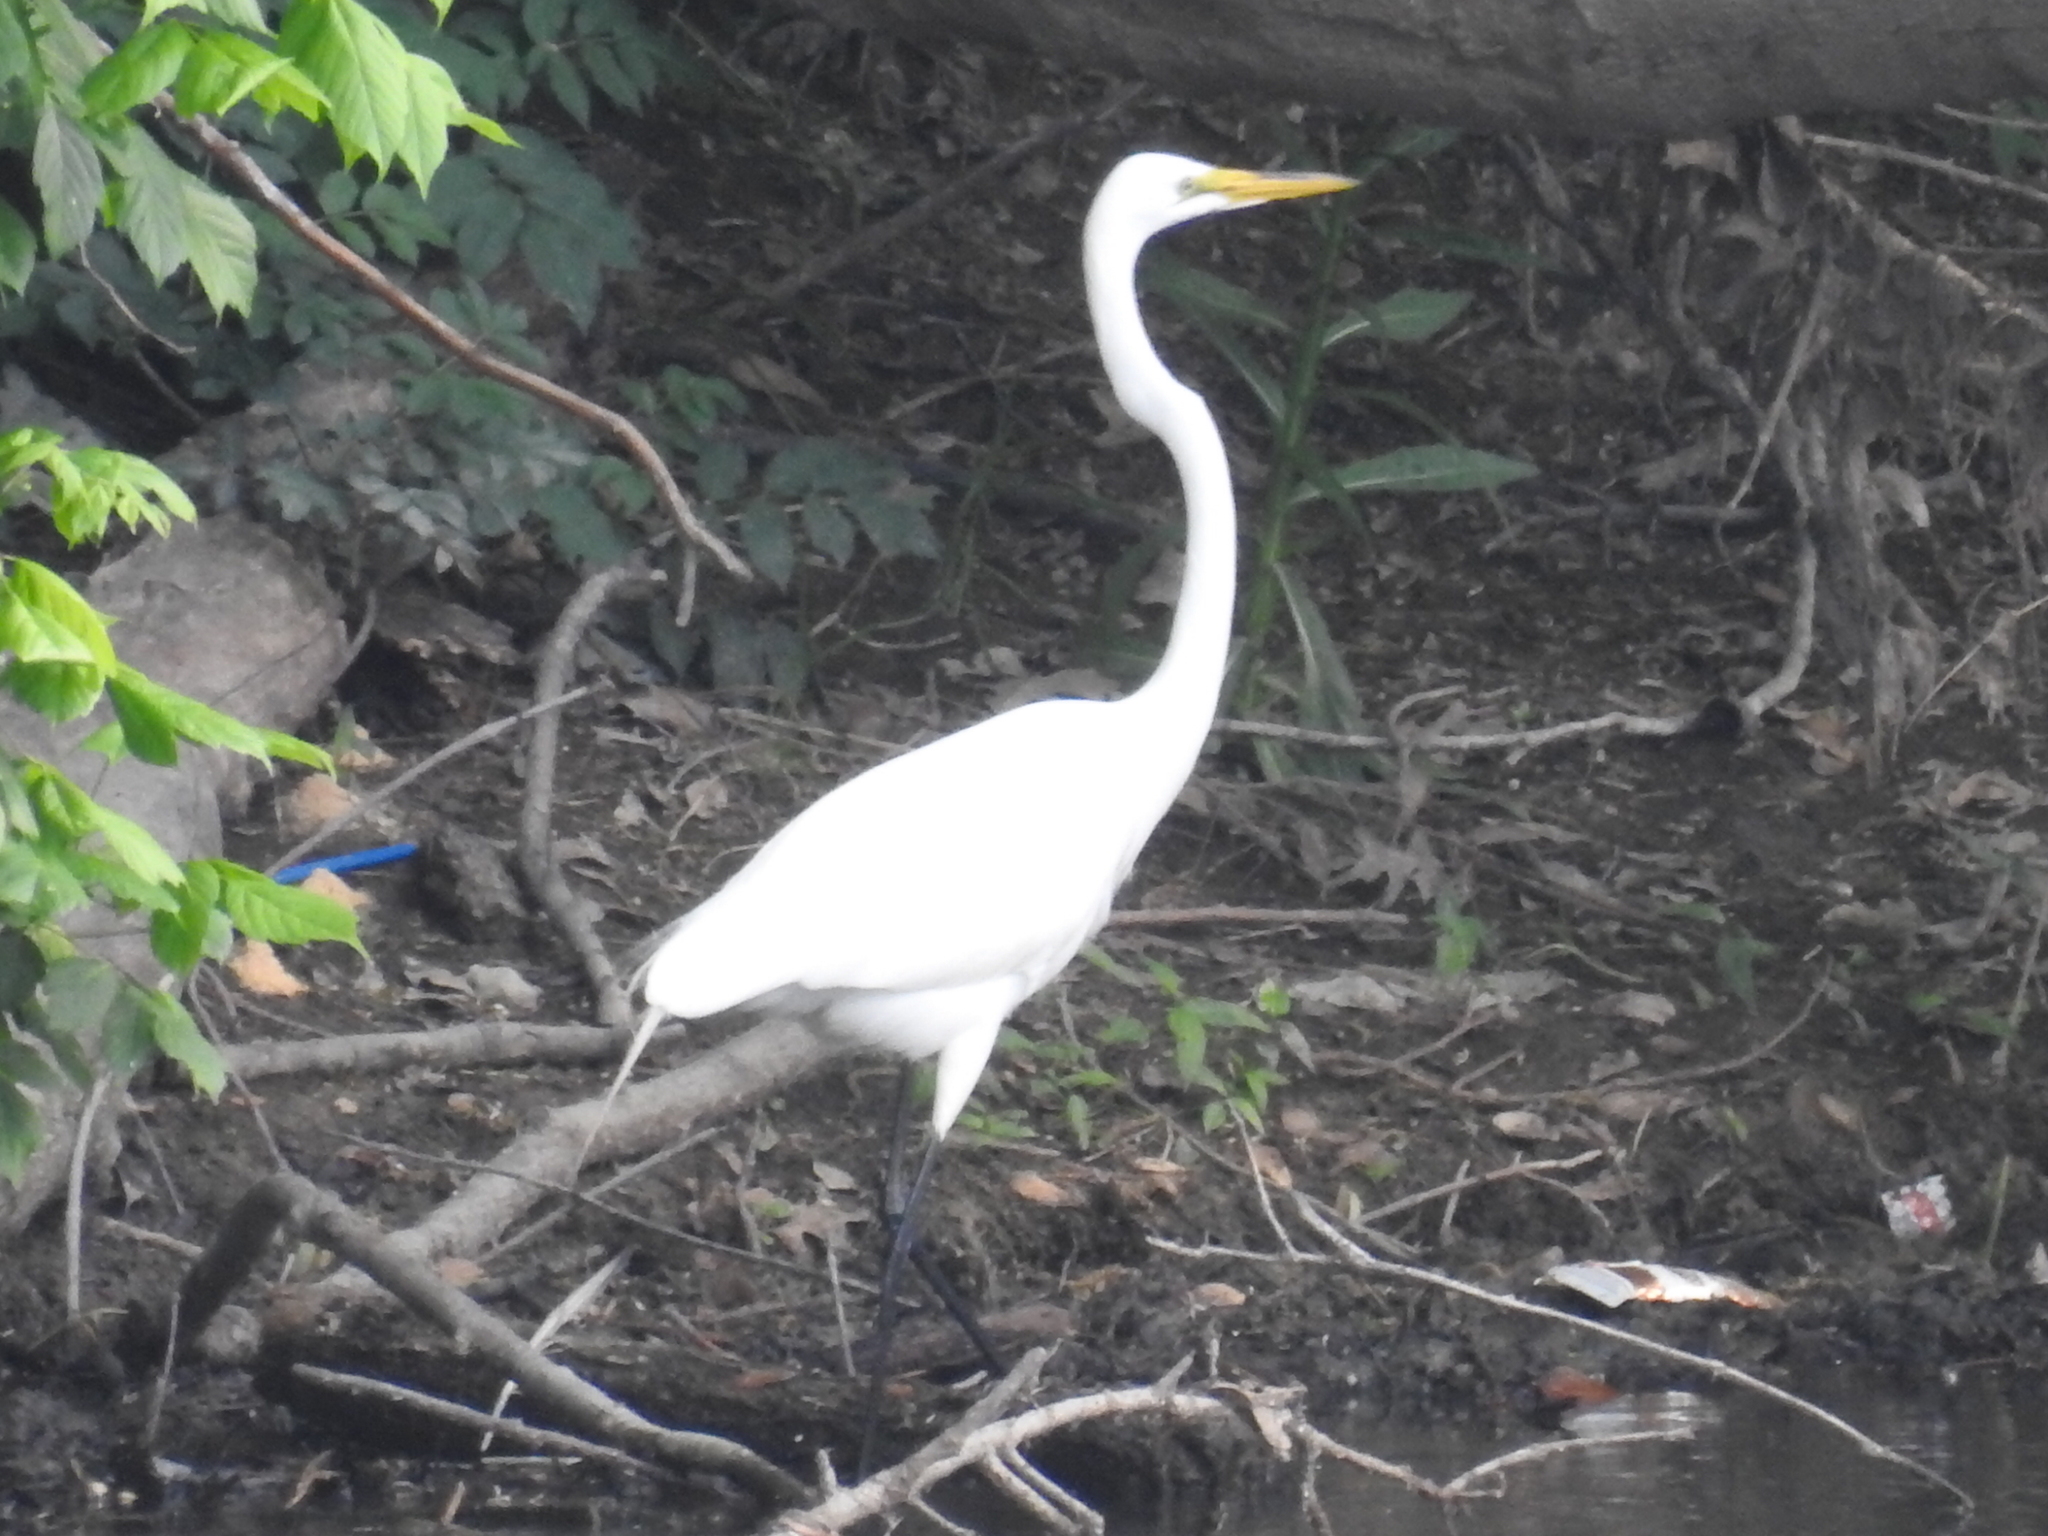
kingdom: Animalia
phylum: Chordata
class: Aves
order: Pelecaniformes
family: Ardeidae
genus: Ardea
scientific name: Ardea alba
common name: Great egret
